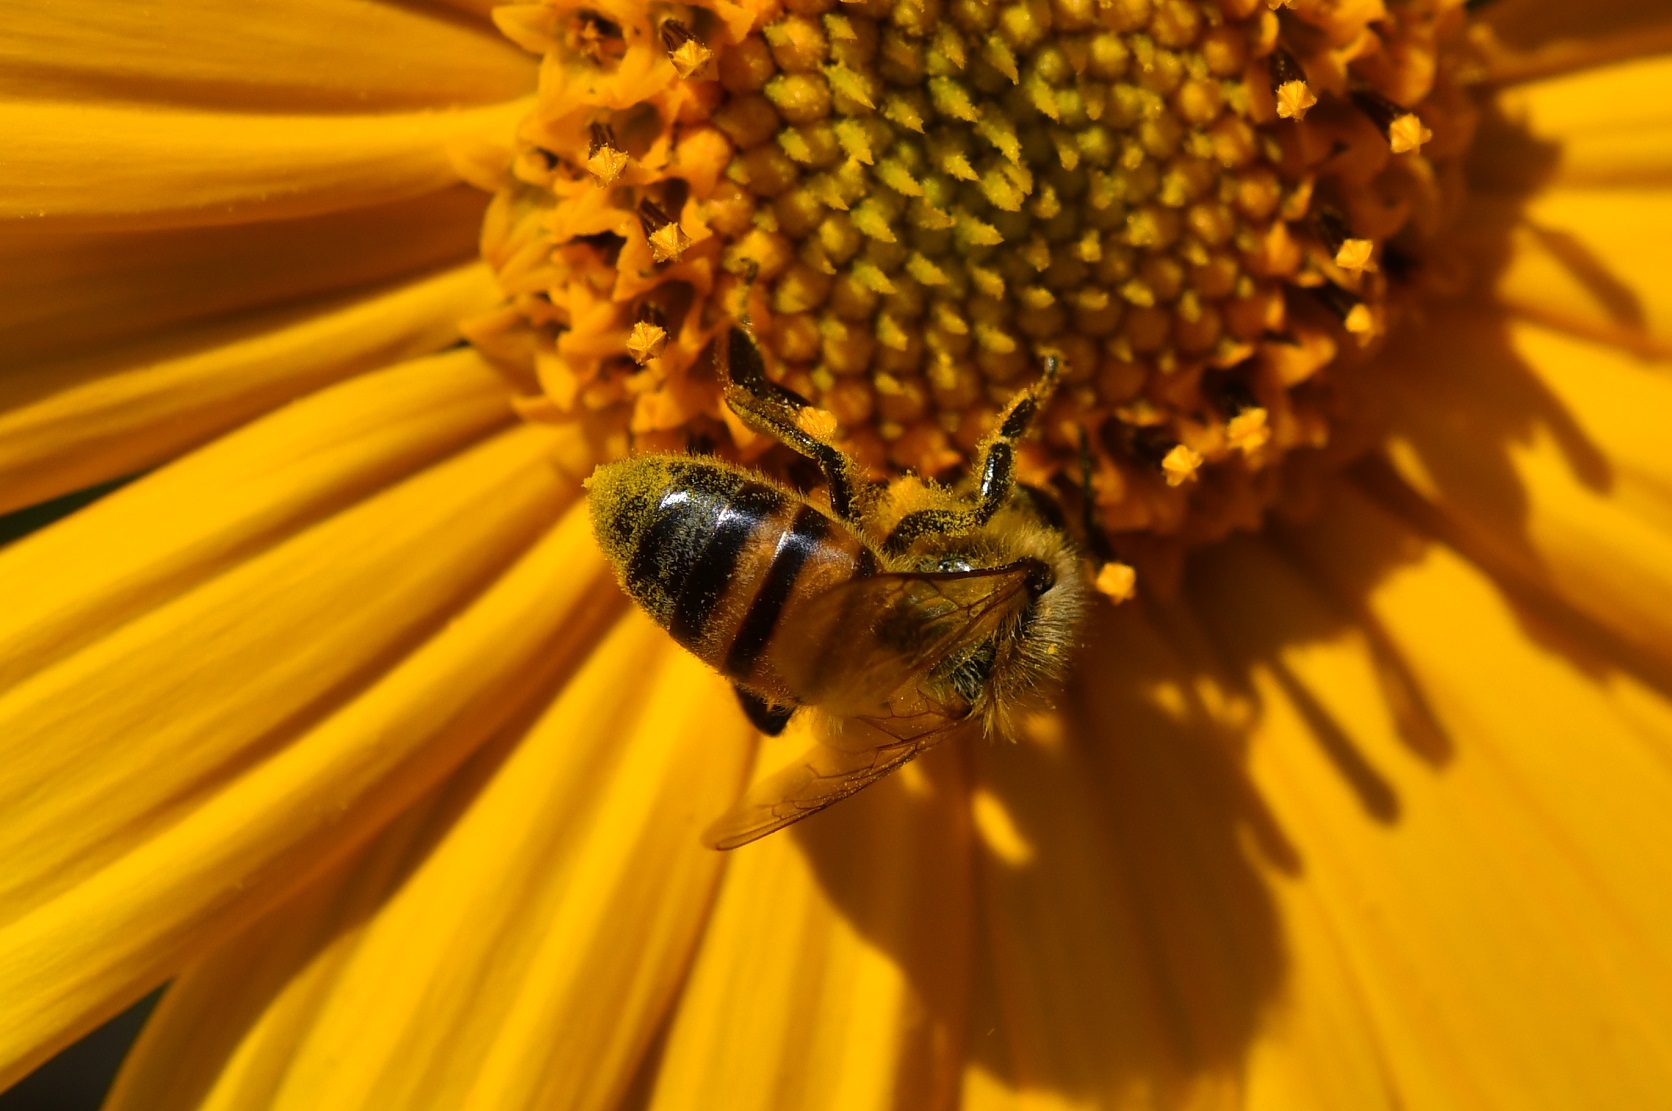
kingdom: Animalia
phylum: Arthropoda
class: Insecta
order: Hymenoptera
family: Apidae
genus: Apis
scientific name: Apis mellifera
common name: Honey bee
